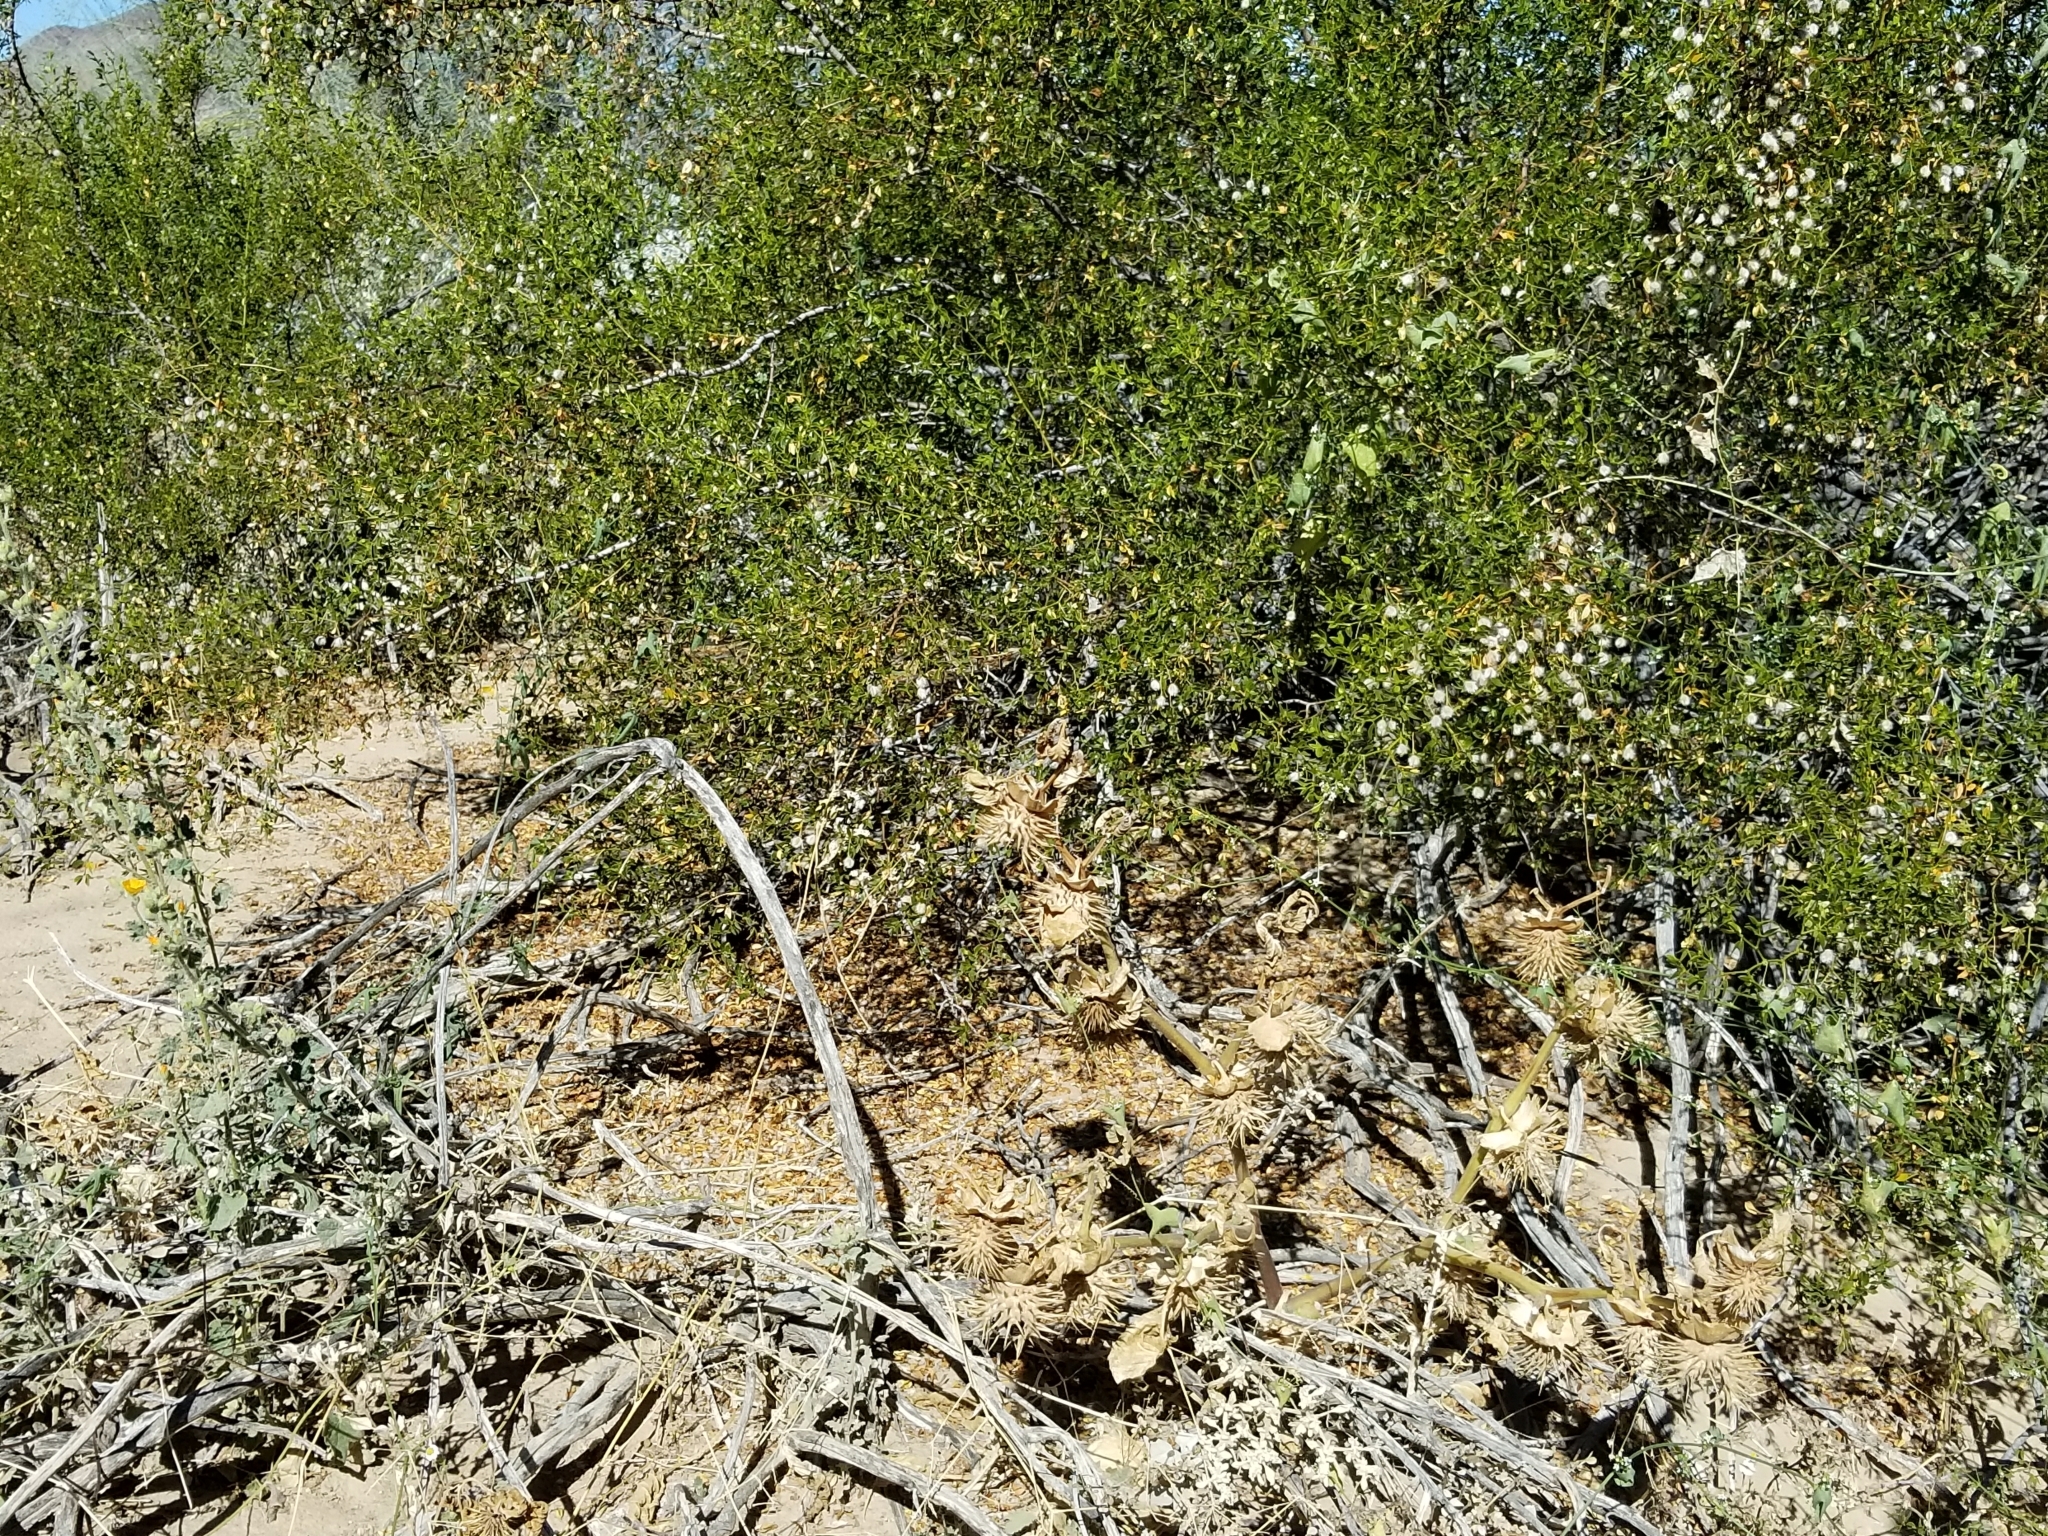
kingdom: Plantae
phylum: Tracheophyta
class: Magnoliopsida
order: Solanales
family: Solanaceae
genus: Datura
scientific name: Datura discolor
